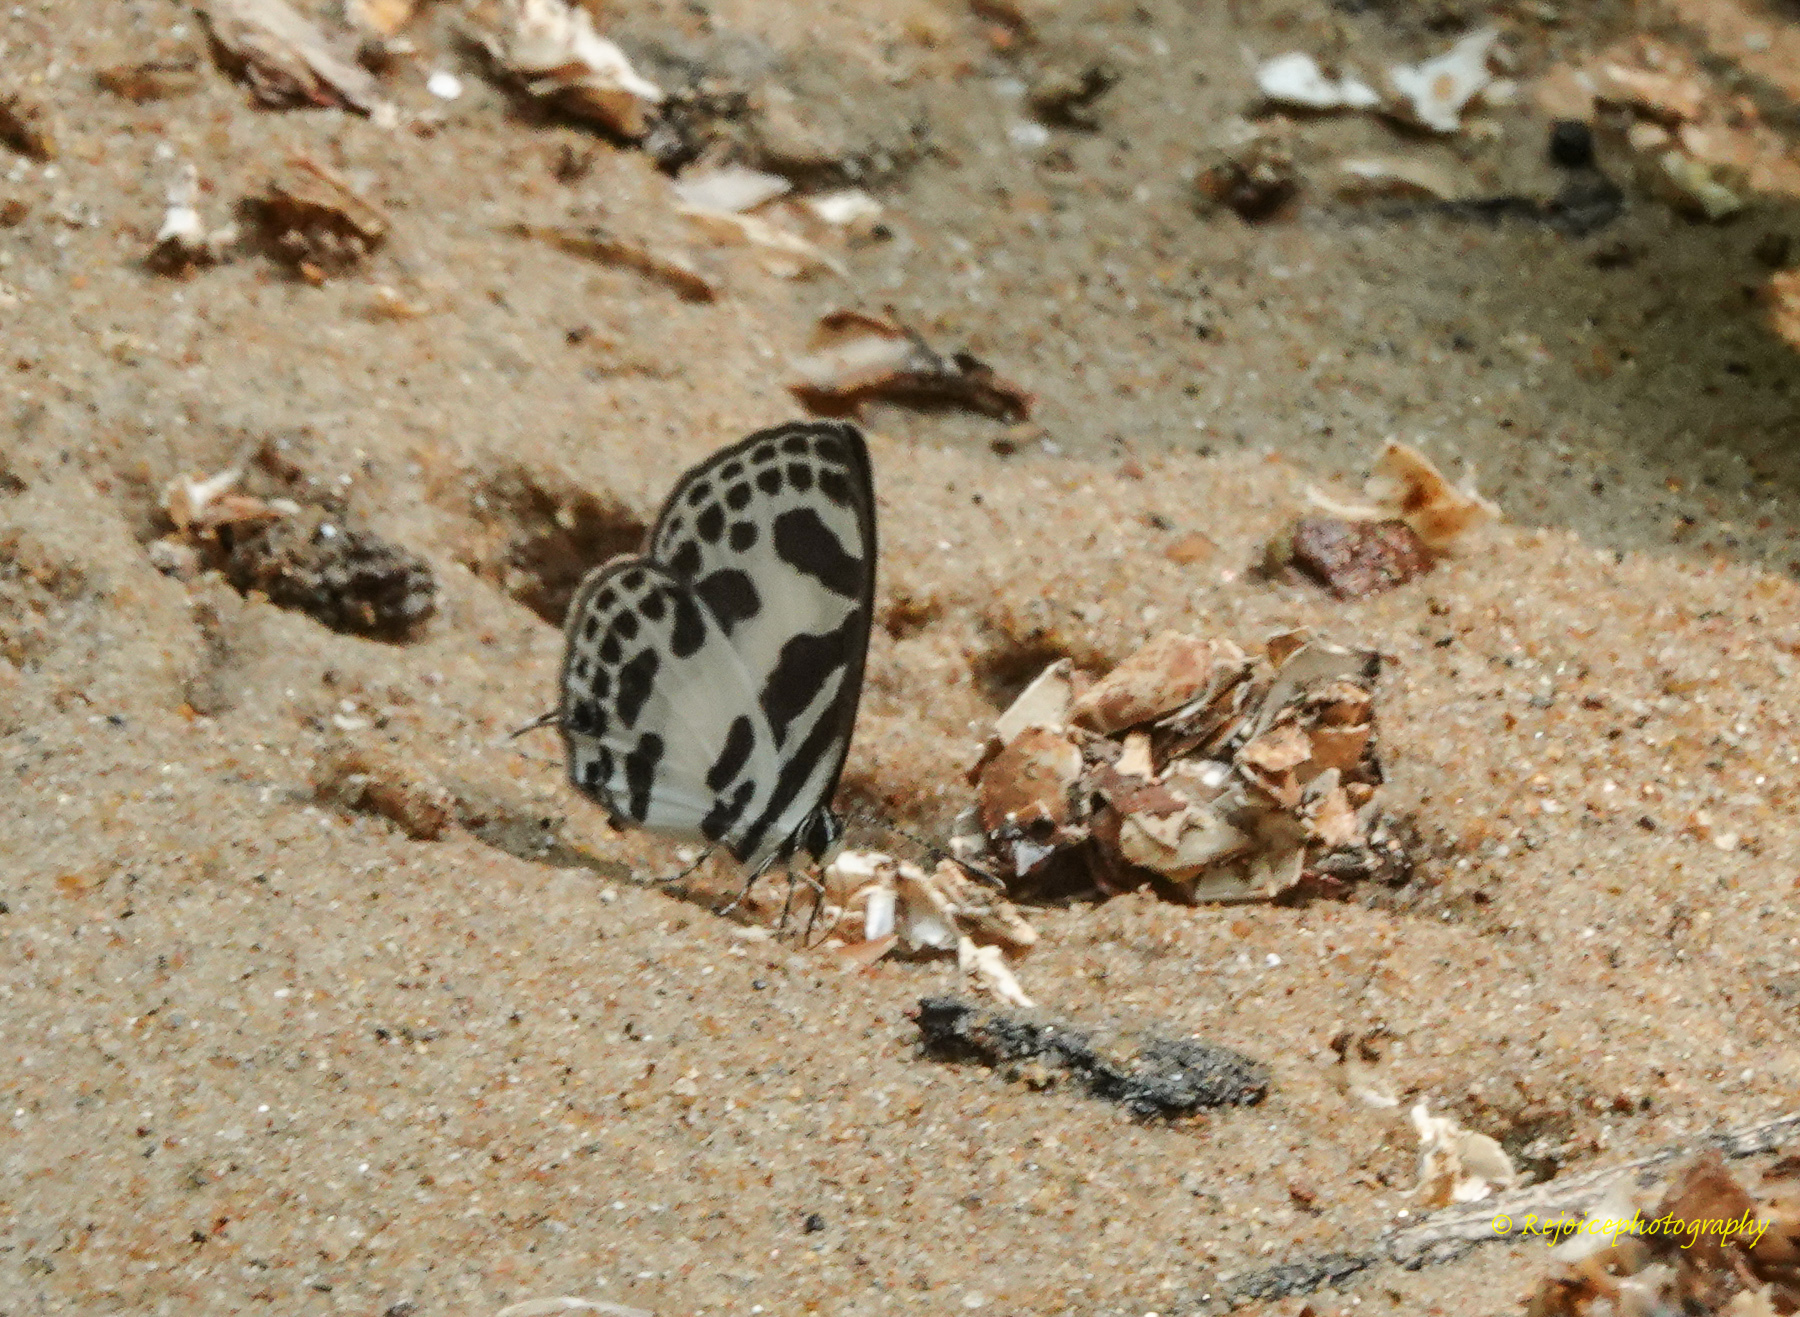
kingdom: Animalia
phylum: Arthropoda
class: Insecta
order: Lepidoptera
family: Lycaenidae
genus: Discolampa
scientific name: Discolampa ethion
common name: Banded blue pierrot
